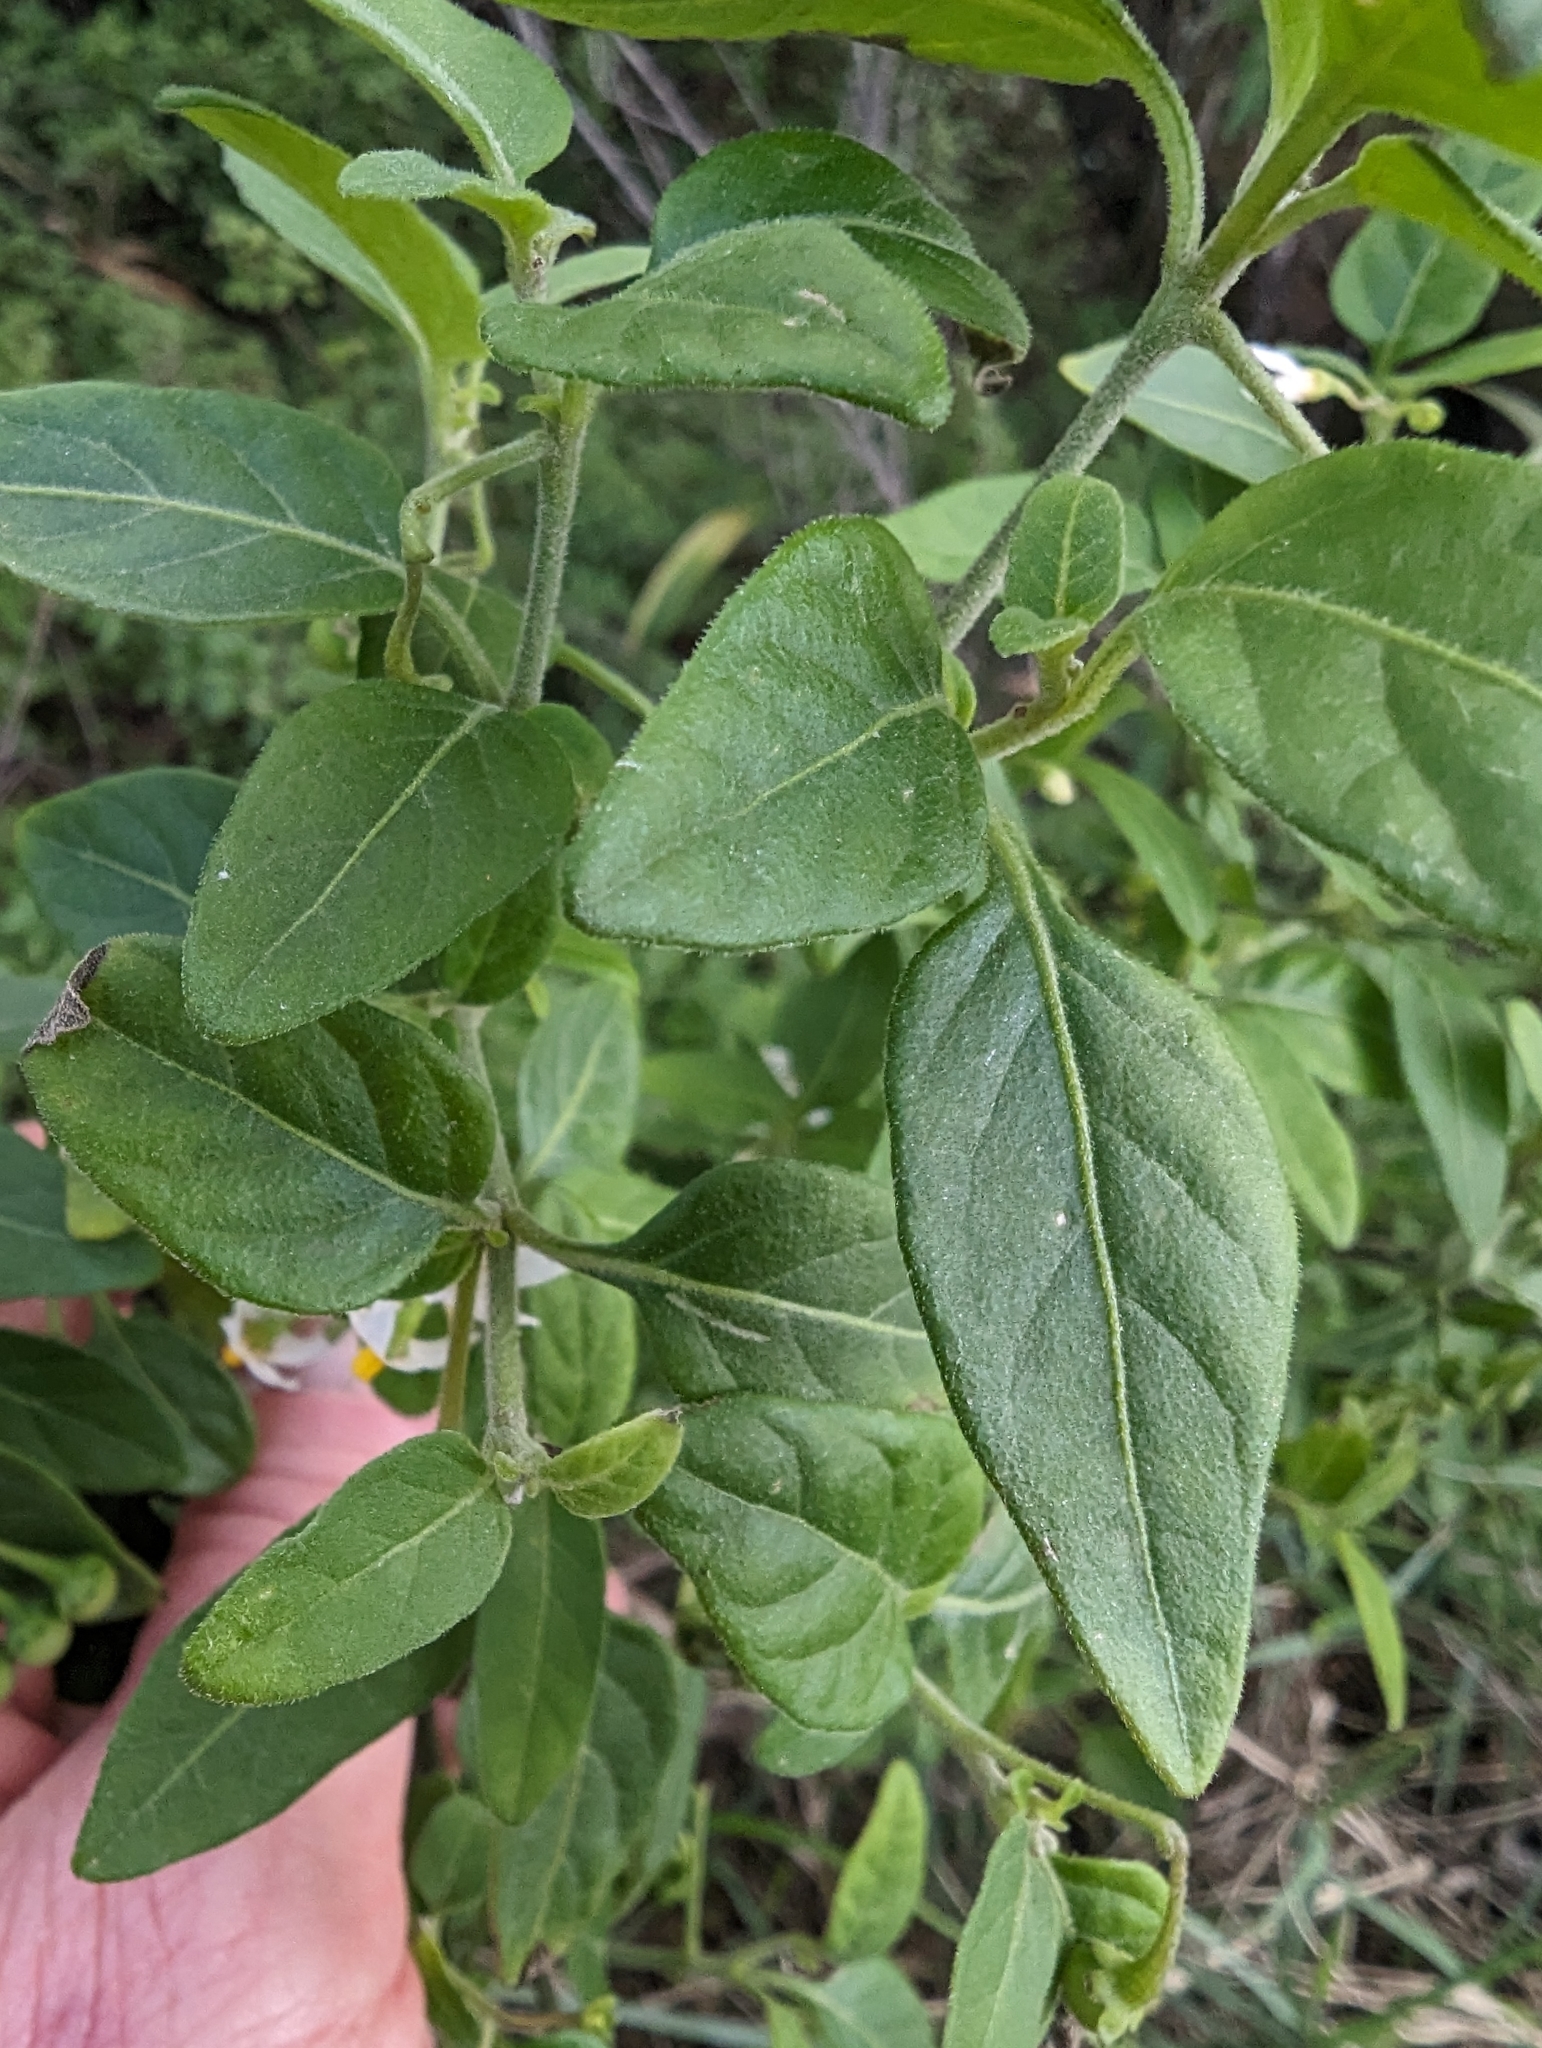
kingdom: Plantae
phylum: Tracheophyta
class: Magnoliopsida
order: Solanales
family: Solanaceae
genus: Solanum
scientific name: Solanum chenopodioides
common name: Tall nightshade
